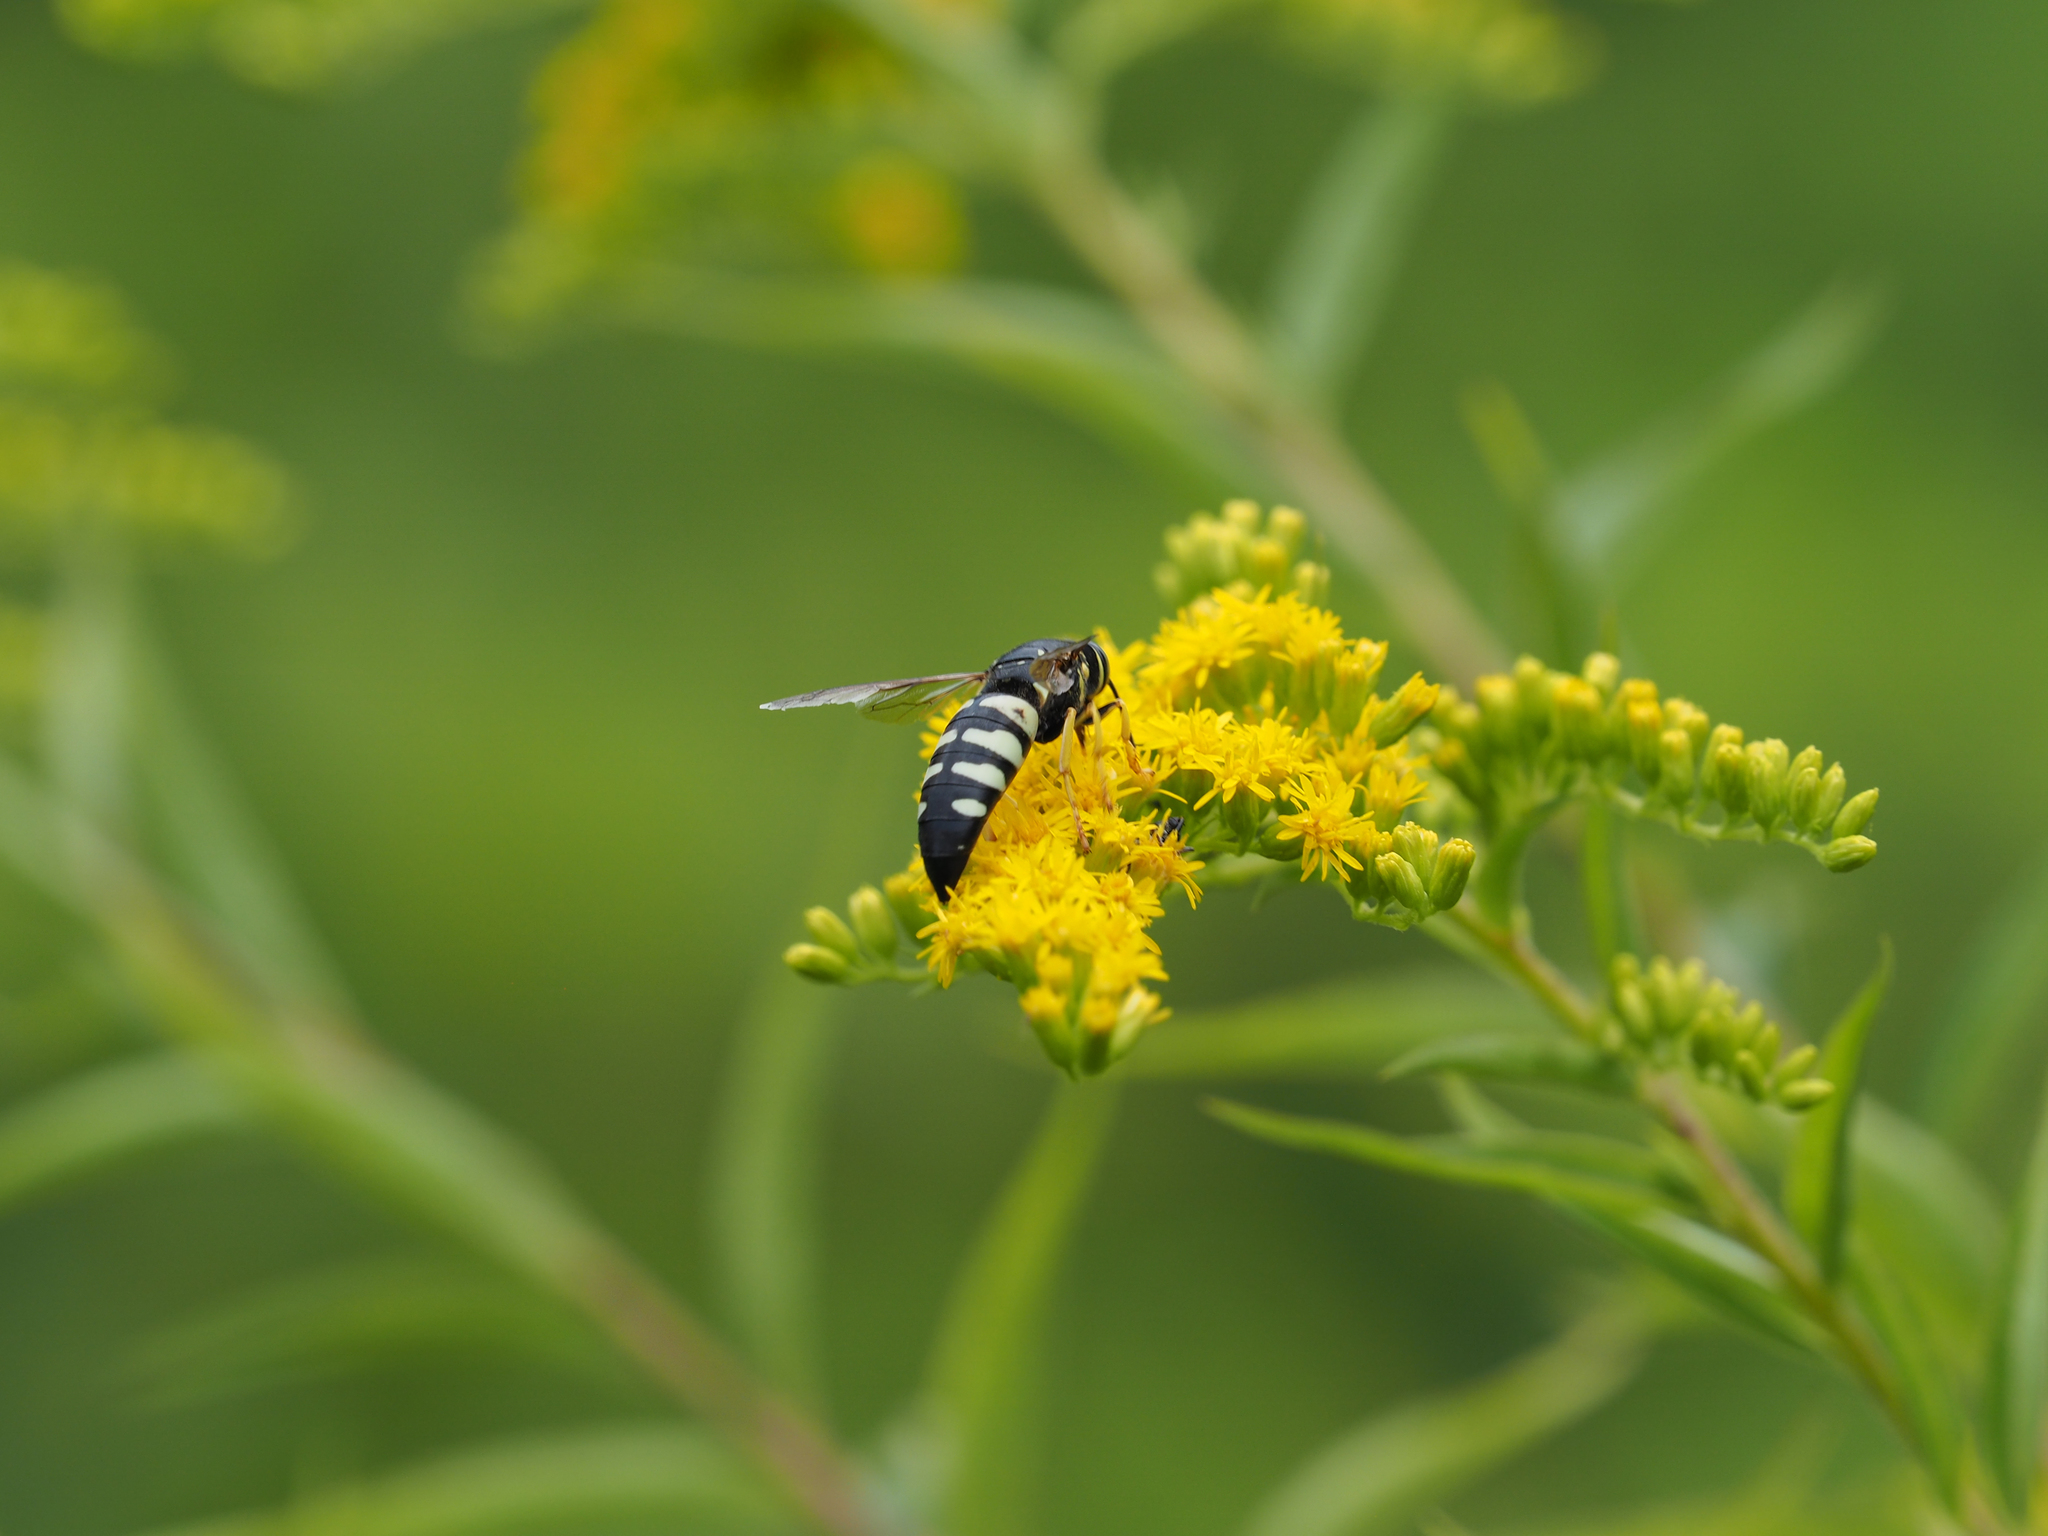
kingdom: Animalia
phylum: Arthropoda
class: Insecta
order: Hymenoptera
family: Crabronidae
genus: Bicyrtes
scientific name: Bicyrtes quadrifasciatus
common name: Four-banded stink bug hunter wasp
